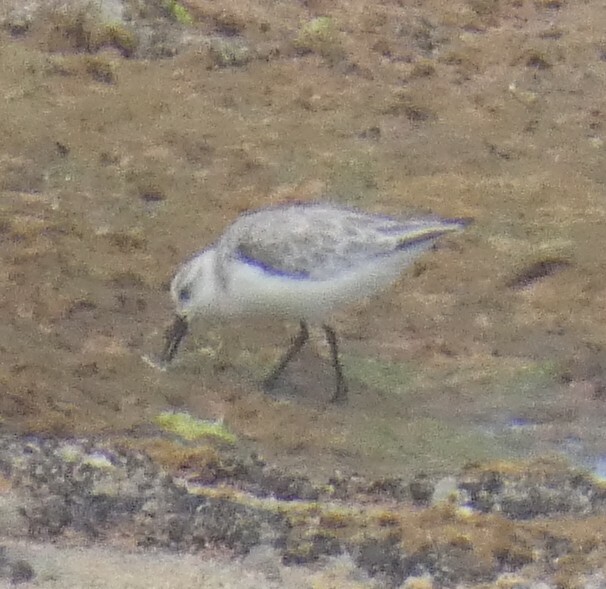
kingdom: Animalia
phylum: Chordata
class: Aves
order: Charadriiformes
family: Scolopacidae
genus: Calidris
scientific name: Calidris alba
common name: Sanderling
